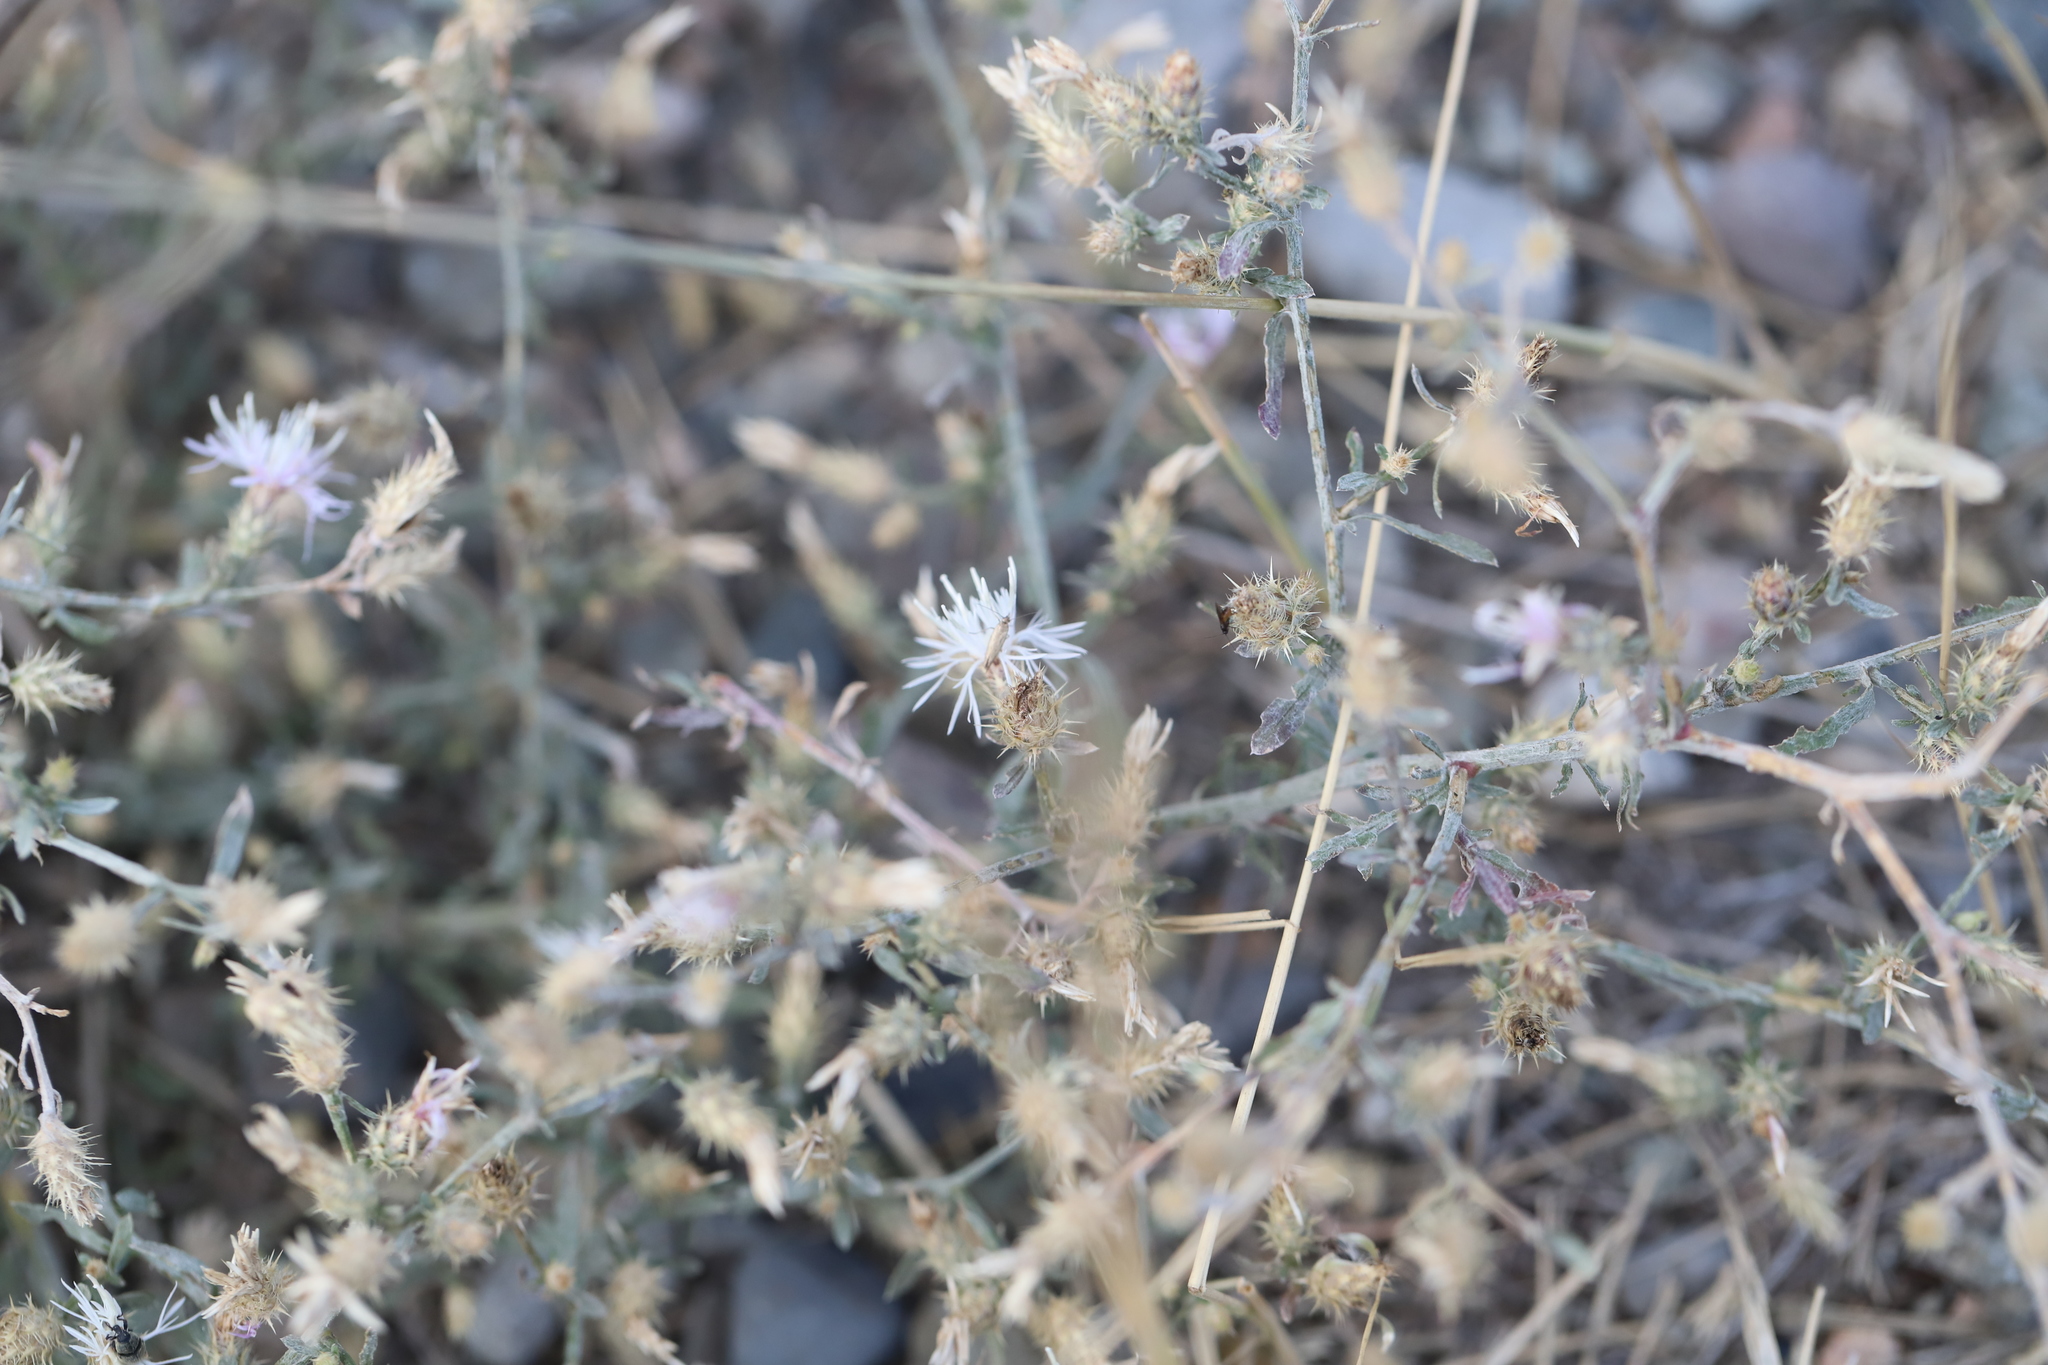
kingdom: Plantae
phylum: Tracheophyta
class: Magnoliopsida
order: Asterales
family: Asteraceae
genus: Centaurea
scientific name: Centaurea diffusa
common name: Diffuse knapweed
